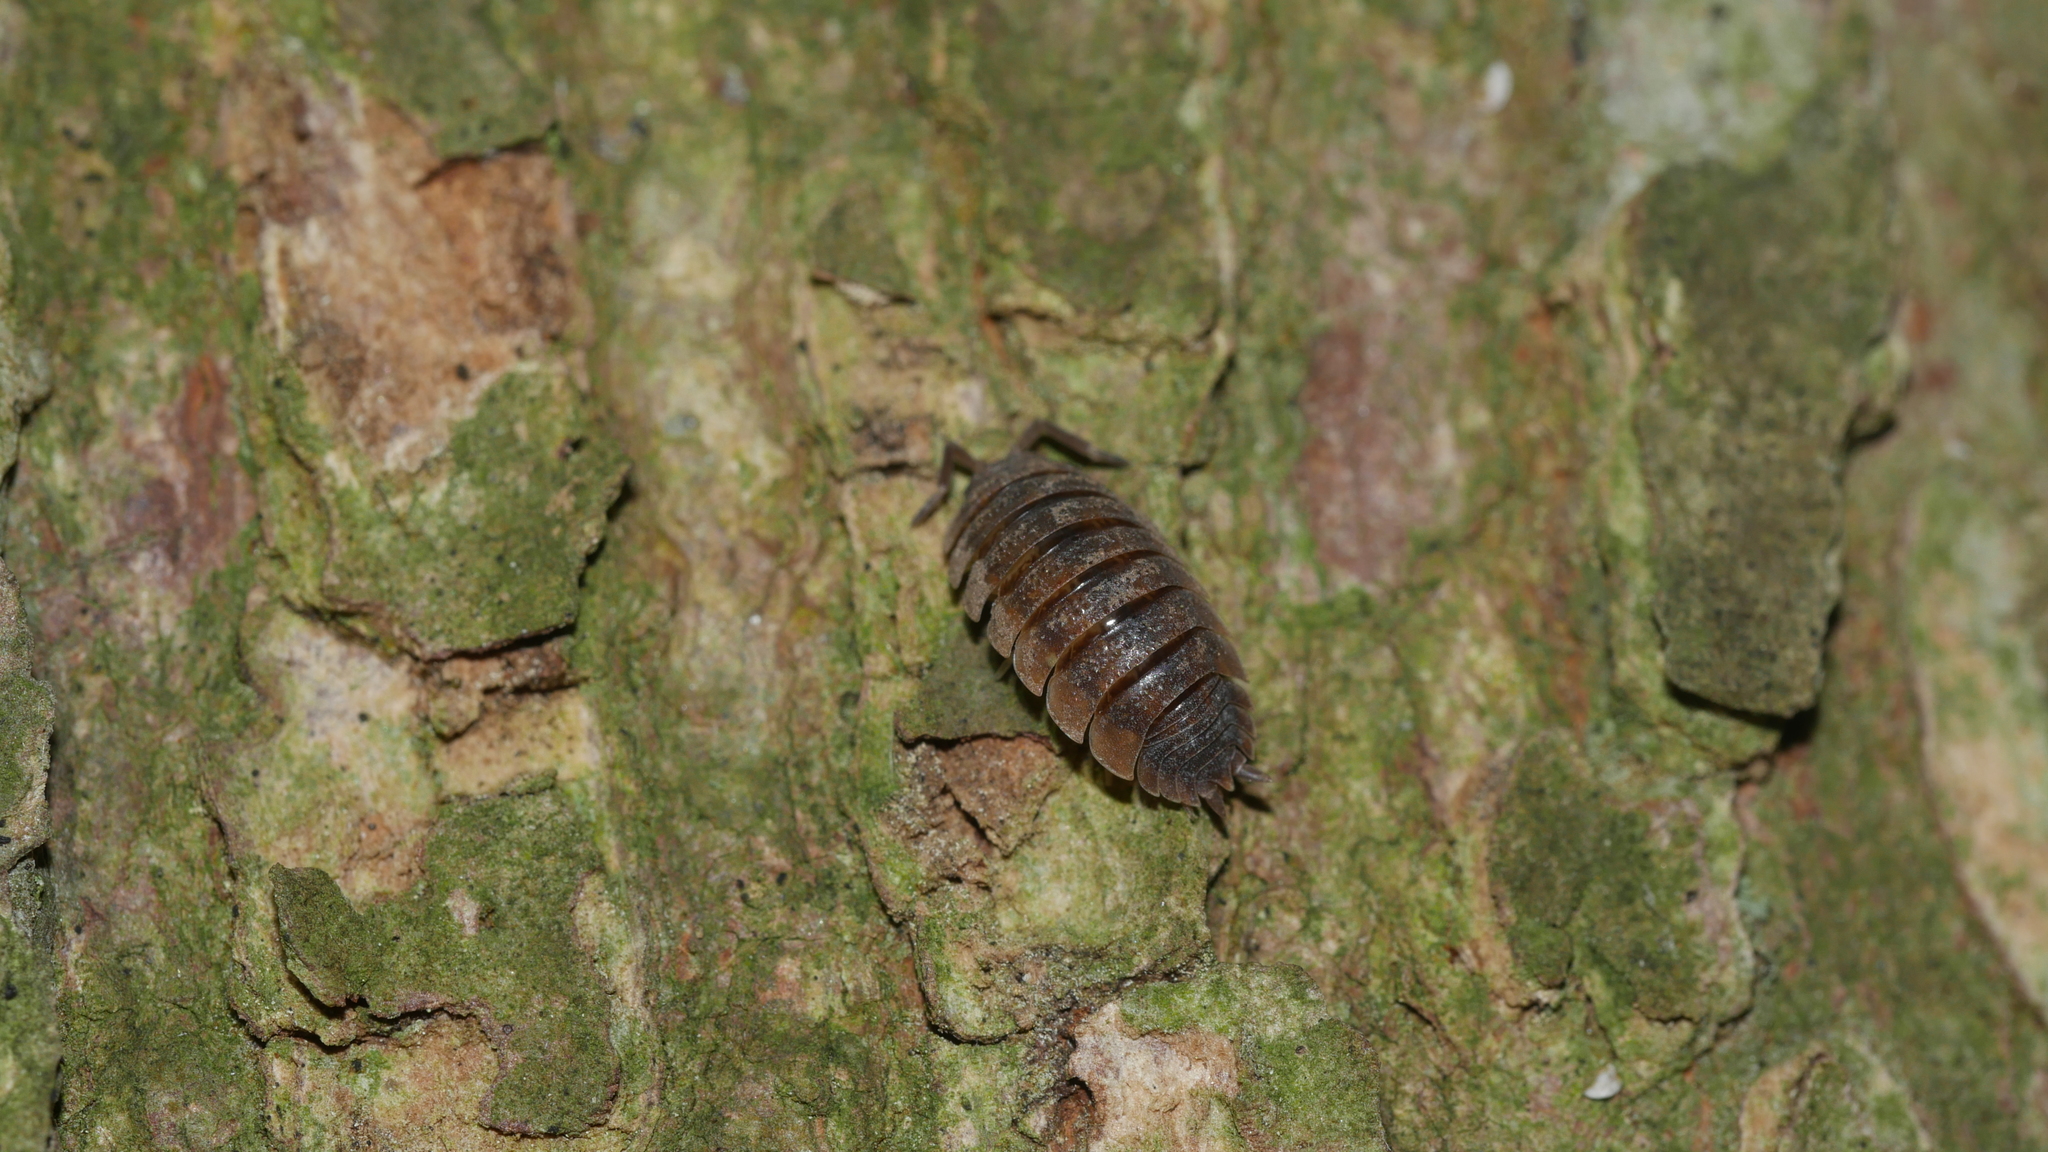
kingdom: Animalia
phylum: Arthropoda
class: Malacostraca
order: Isopoda
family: Porcellionidae
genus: Porcellio
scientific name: Porcellio scaber
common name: Common rough woodlouse
